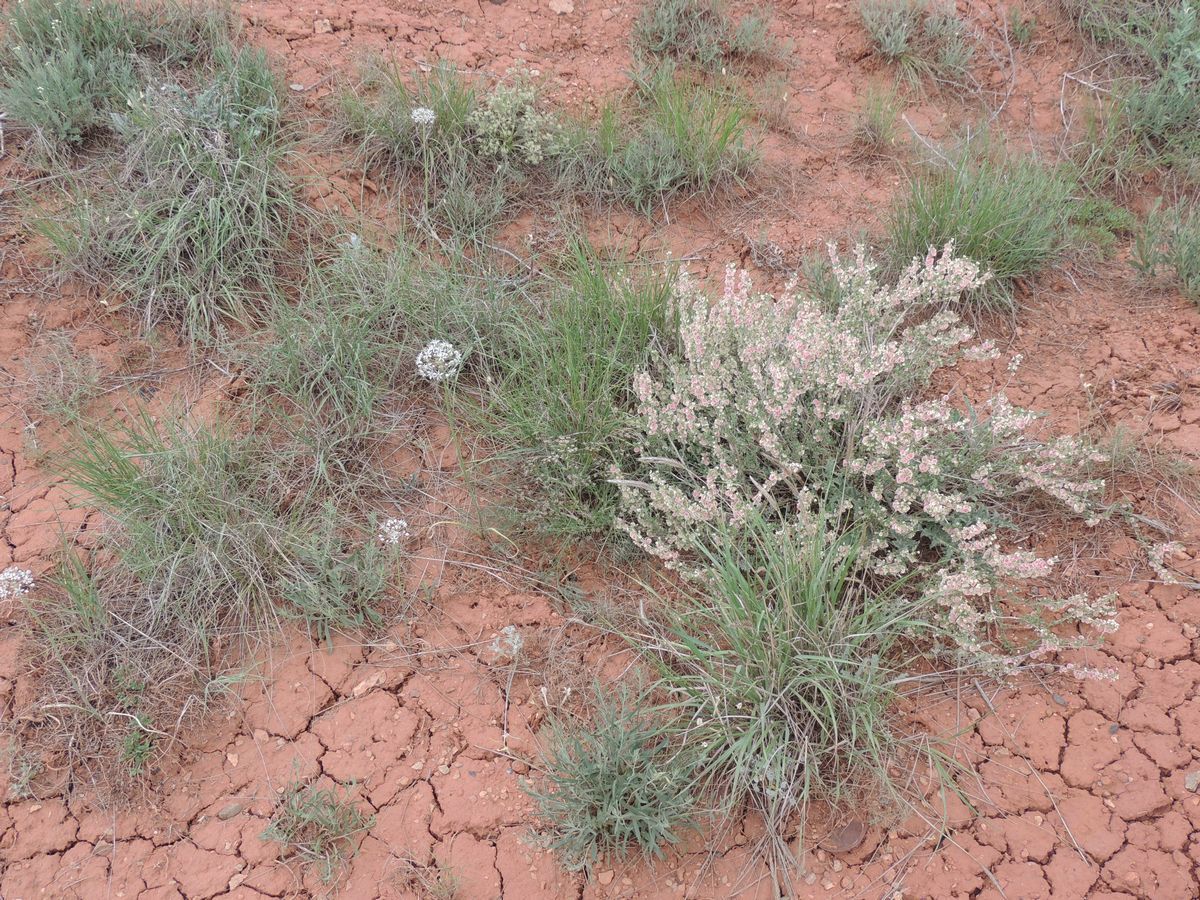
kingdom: Plantae
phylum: Tracheophyta
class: Liliopsida
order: Asparagales
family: Amaryllidaceae
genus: Allium
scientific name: Allium tulipifolium
